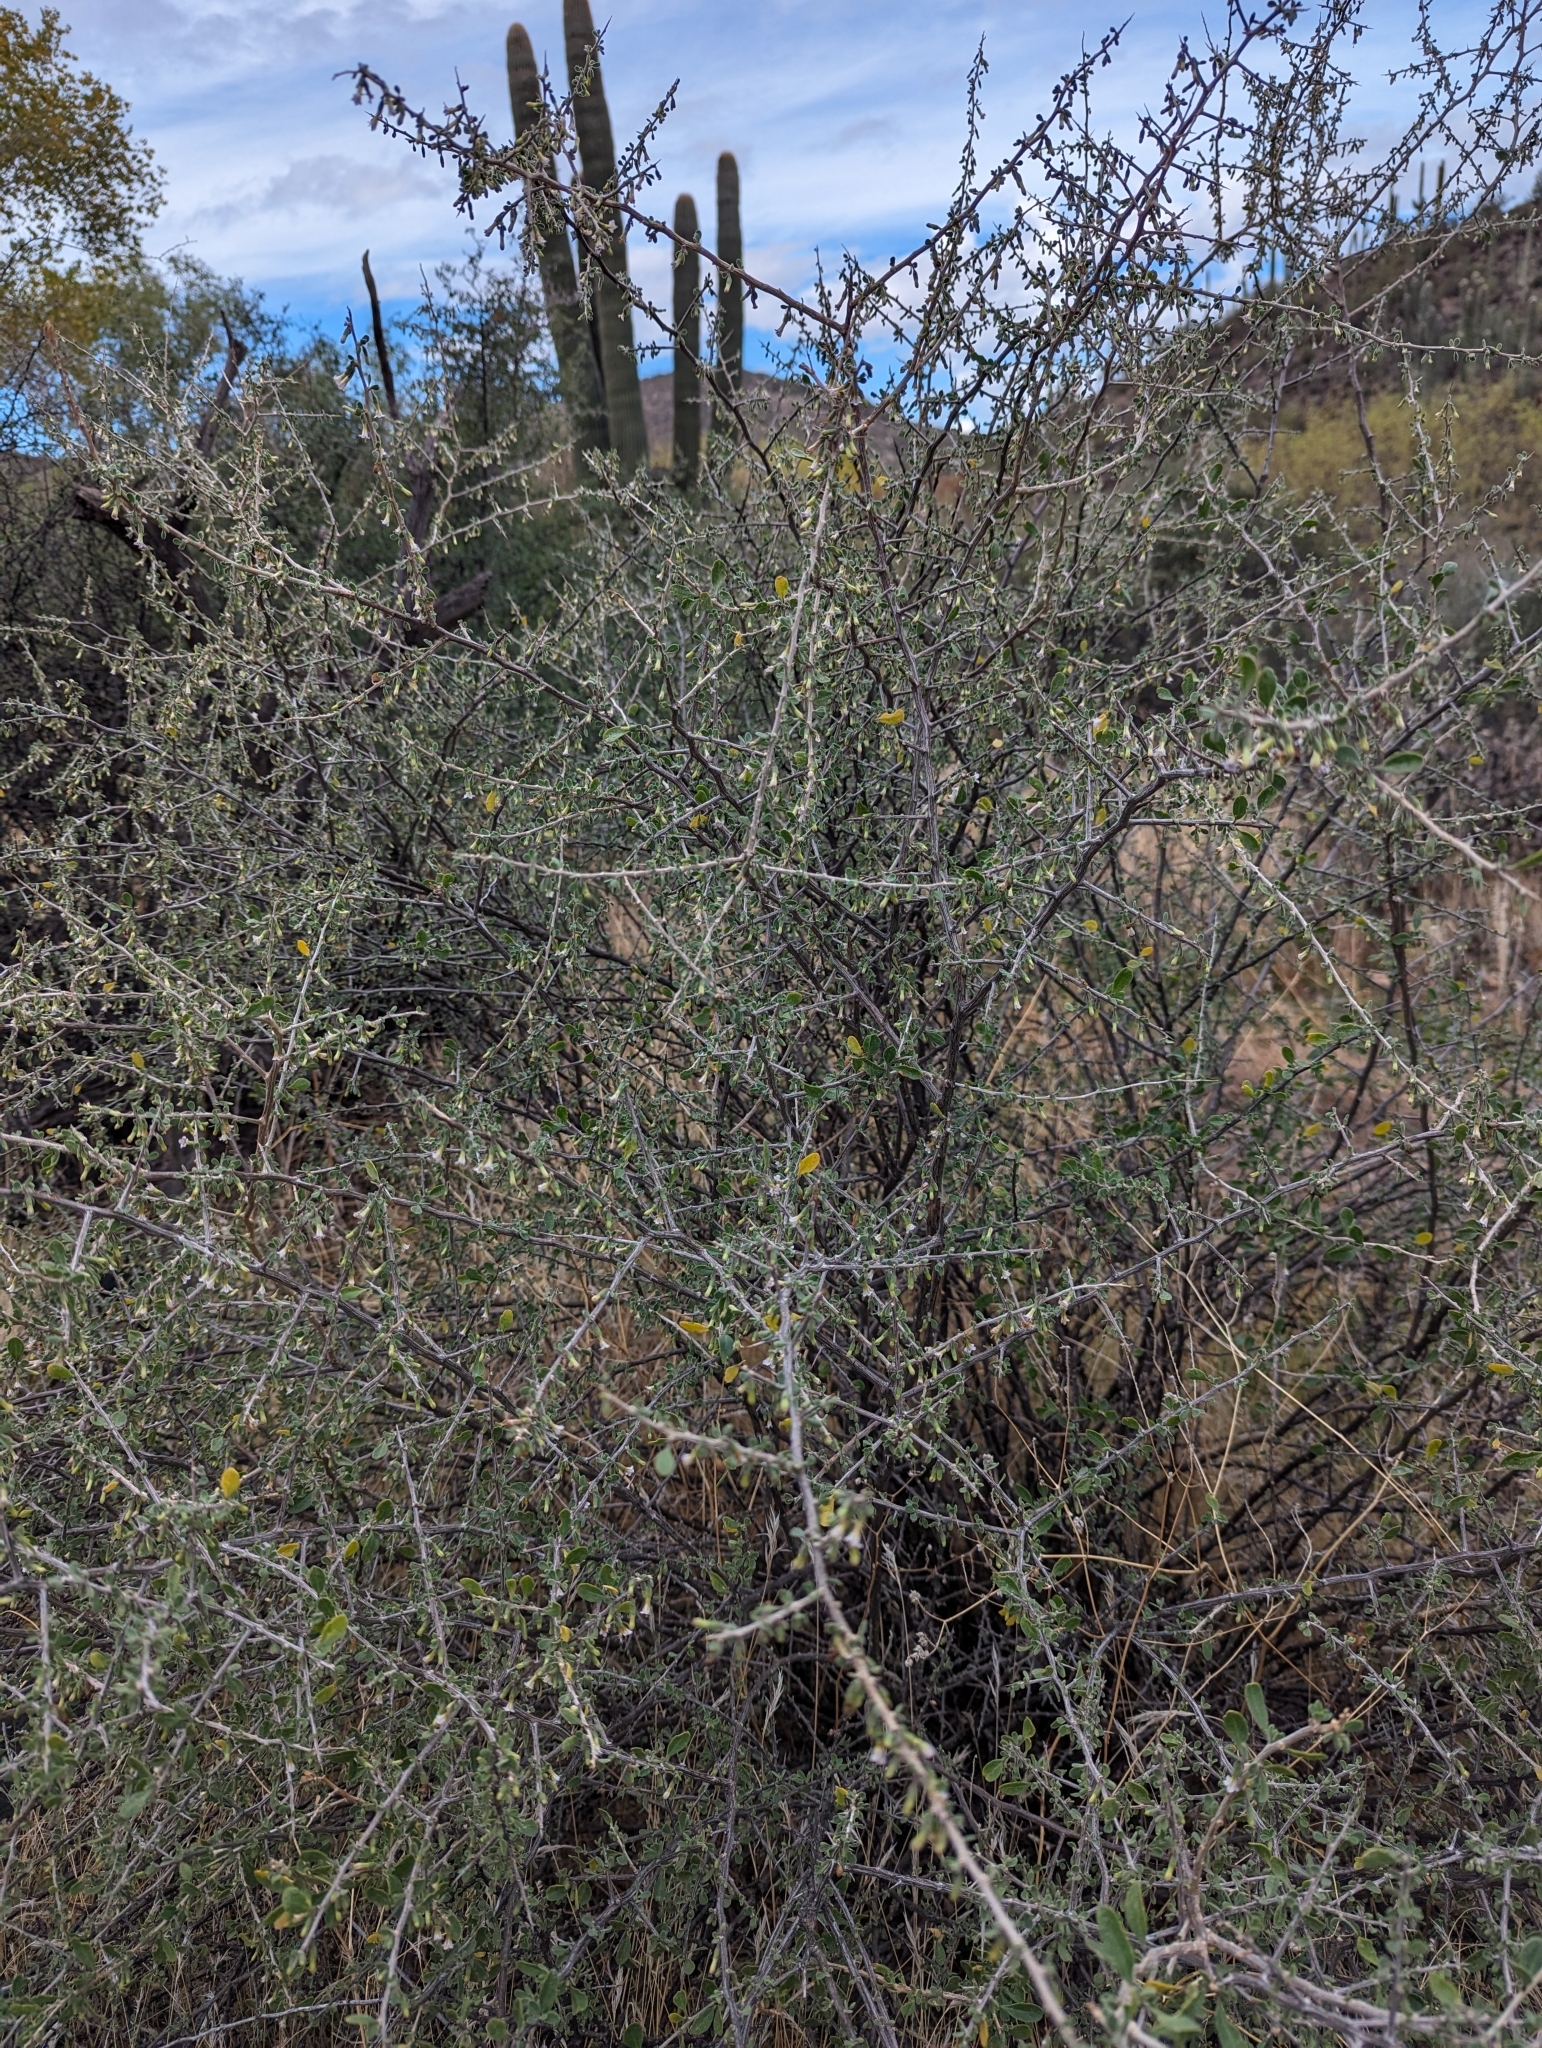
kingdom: Plantae
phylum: Tracheophyta
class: Magnoliopsida
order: Solanales
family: Solanaceae
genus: Lycium
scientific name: Lycium exsertum
